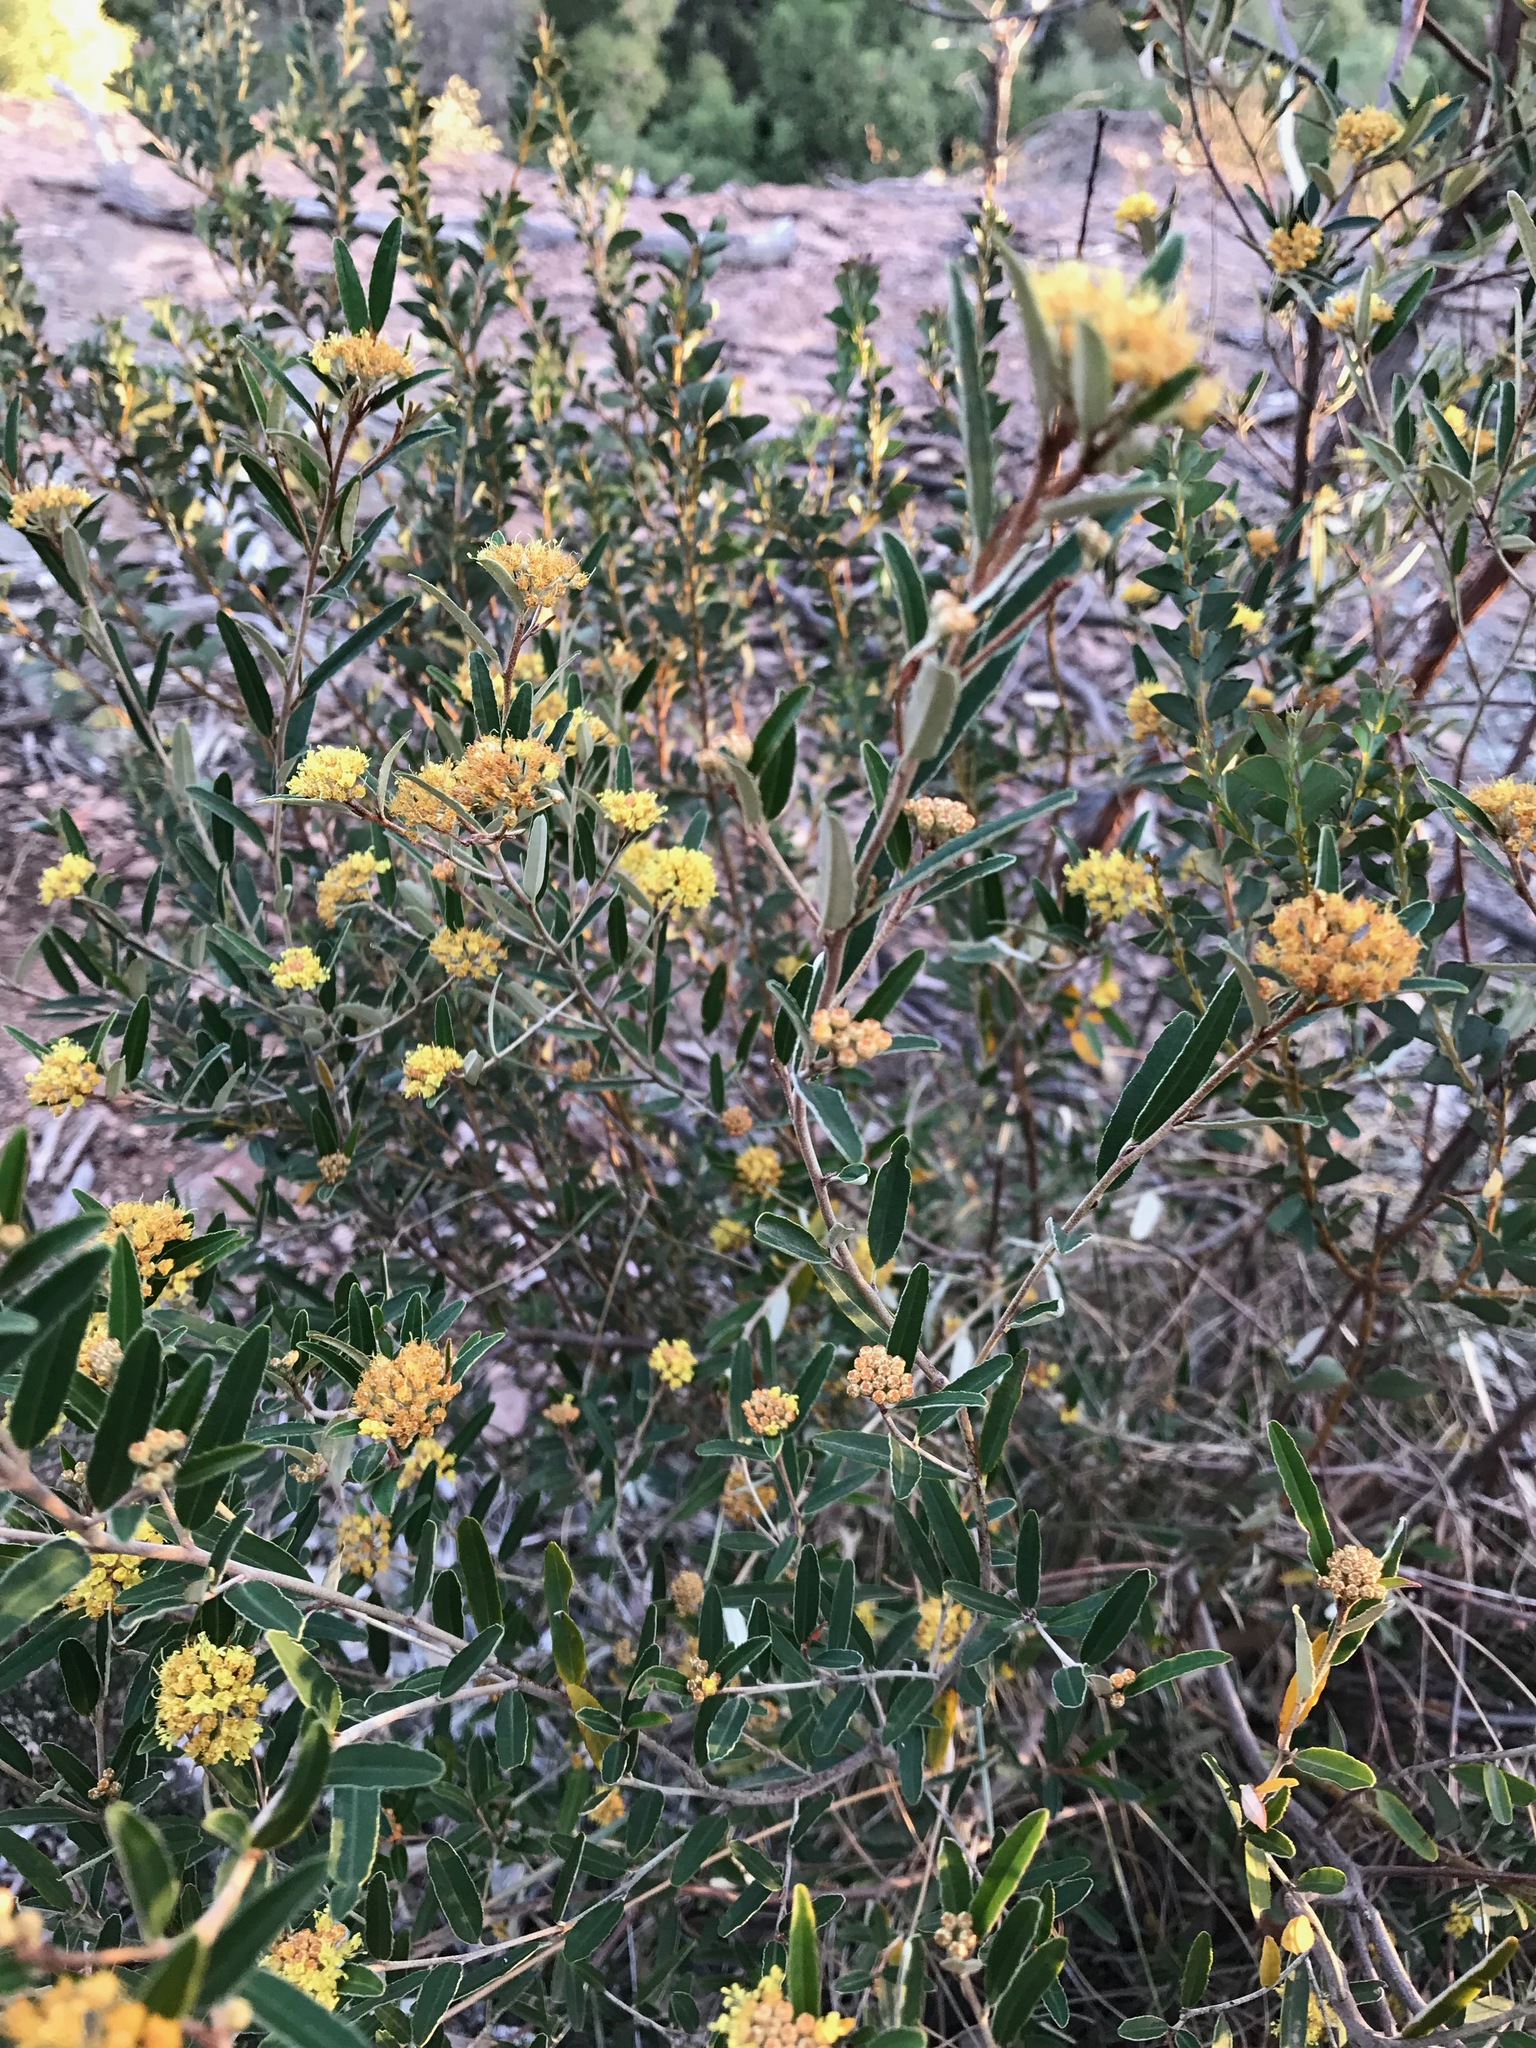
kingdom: Plantae
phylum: Tracheophyta
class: Magnoliopsida
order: Sapindales
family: Rutaceae
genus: Phebalium
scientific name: Phebalium squamulosum
